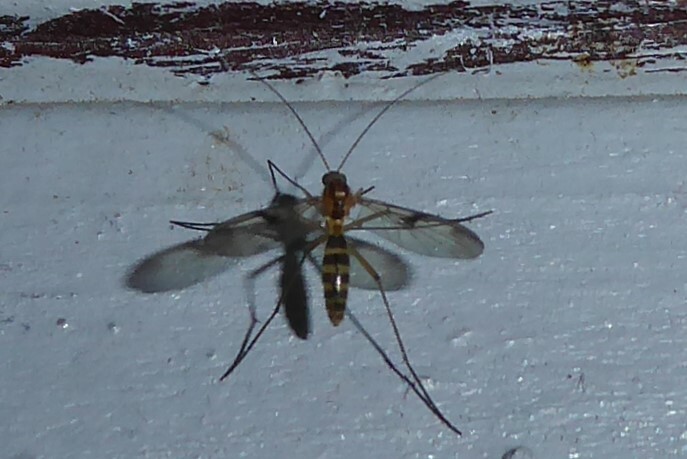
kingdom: Animalia
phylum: Arthropoda
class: Insecta
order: Diptera
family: Keroplatidae
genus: Macrocera
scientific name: Macrocera scoparia
